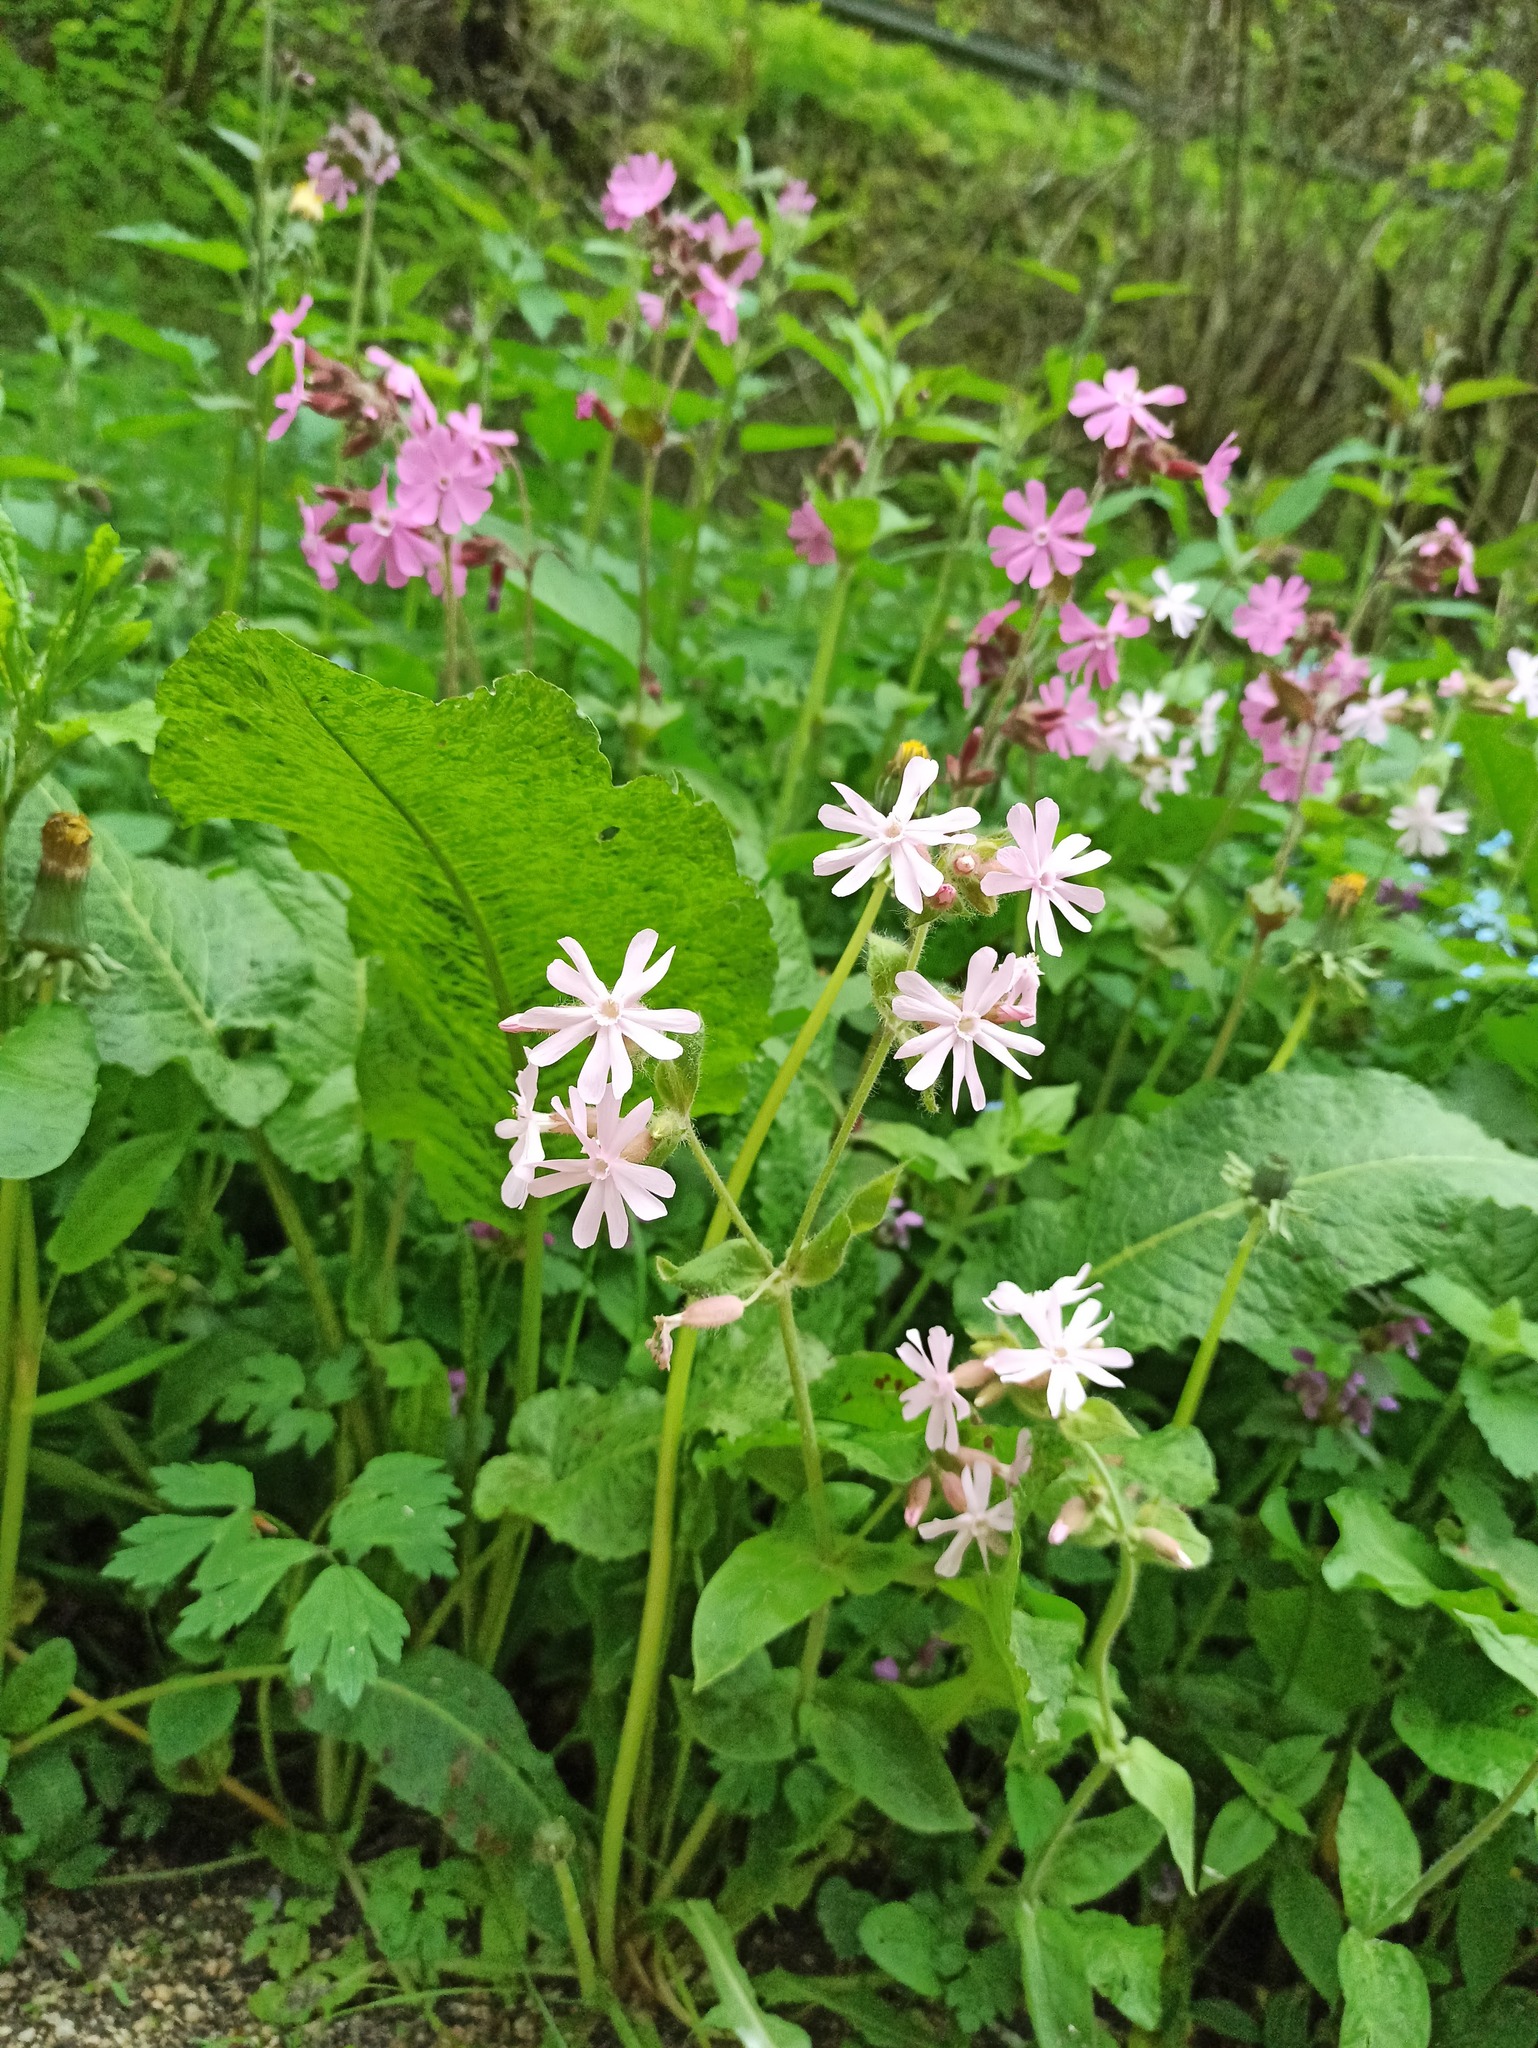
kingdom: Plantae
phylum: Tracheophyta
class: Magnoliopsida
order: Caryophyllales
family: Caryophyllaceae
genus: Silene
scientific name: Silene dioica
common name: Red campion
